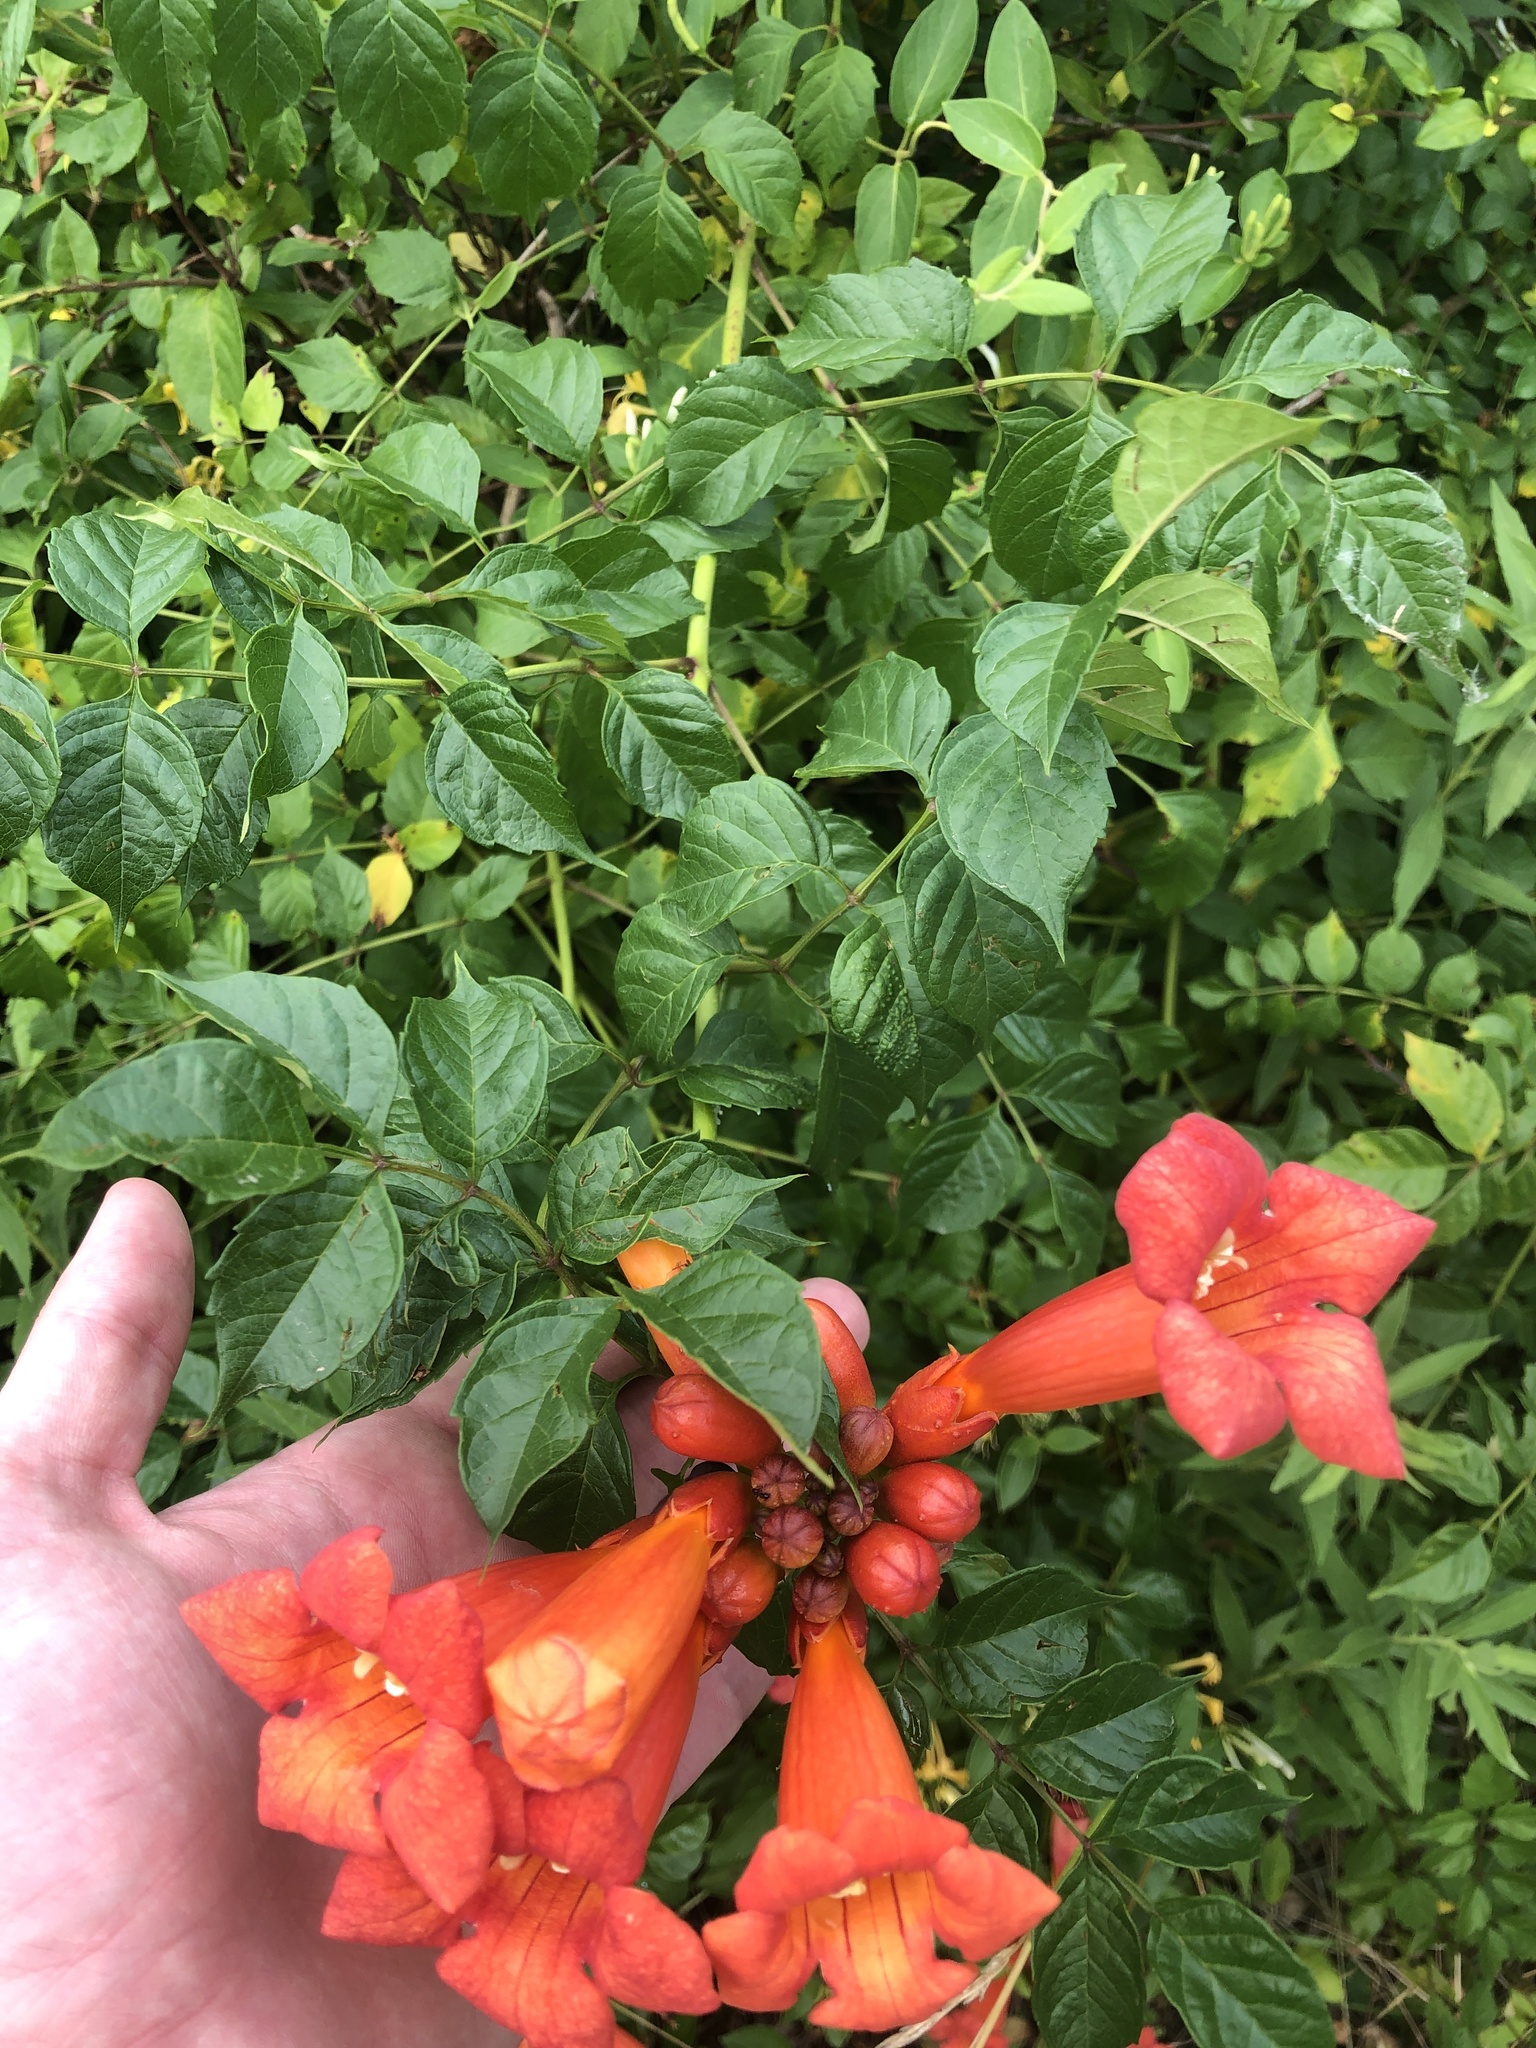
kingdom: Plantae
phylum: Tracheophyta
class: Magnoliopsida
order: Lamiales
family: Bignoniaceae
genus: Campsis
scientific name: Campsis radicans
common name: Trumpet-creeper
